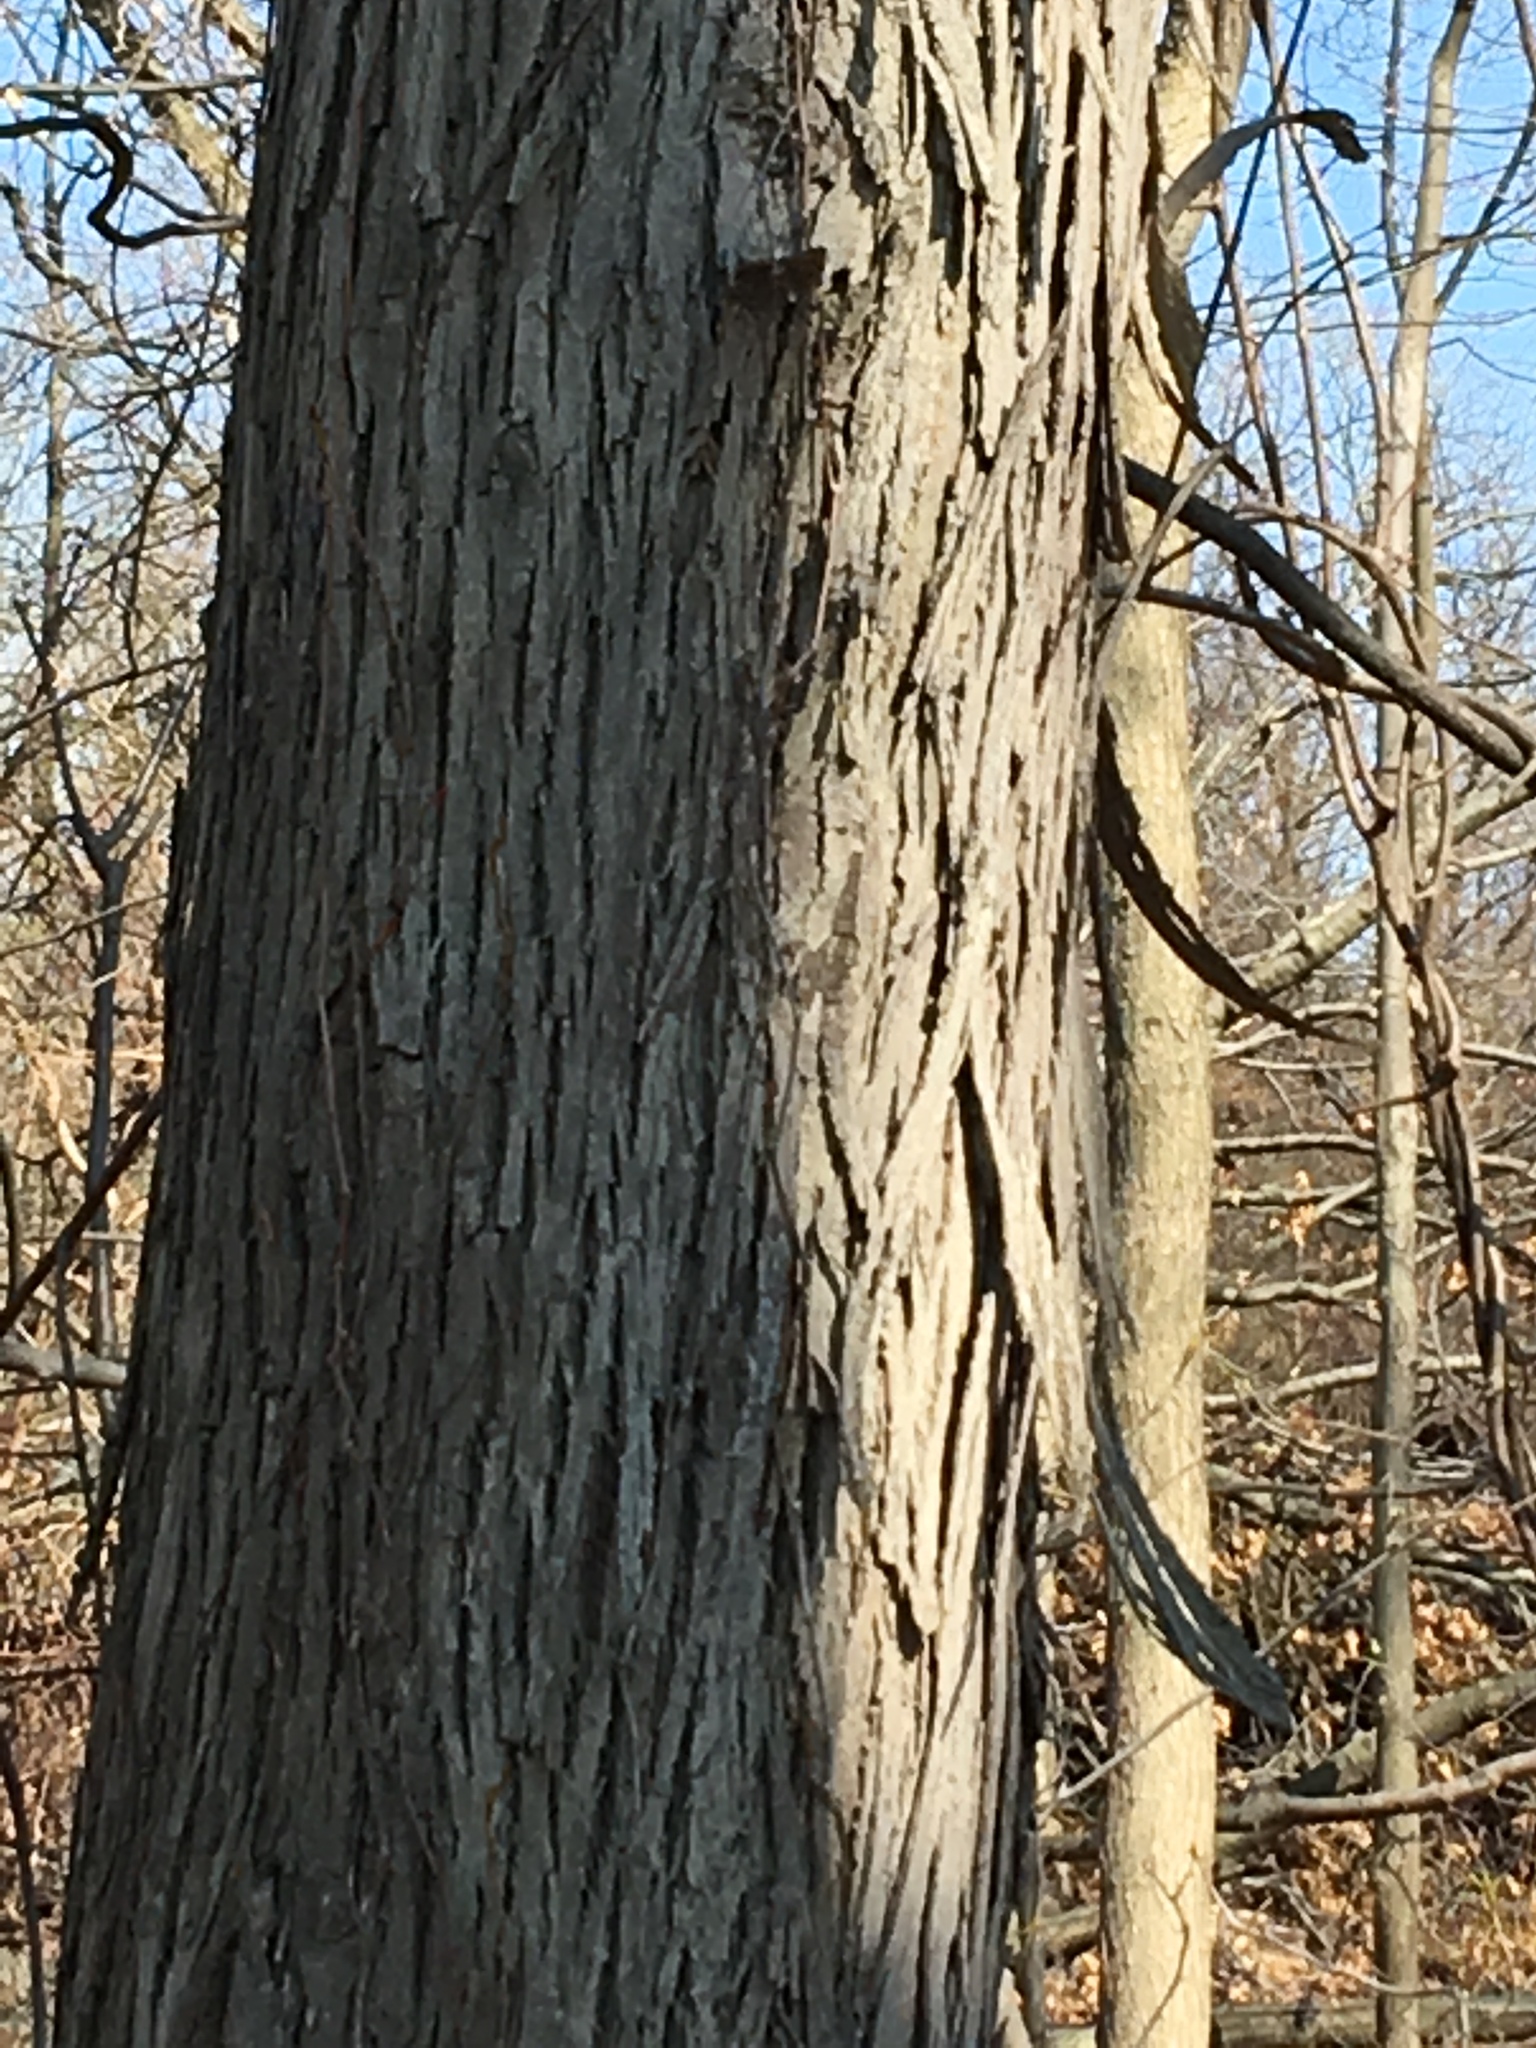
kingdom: Plantae
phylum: Tracheophyta
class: Magnoliopsida
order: Fagales
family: Juglandaceae
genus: Carya
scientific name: Carya ovata
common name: Shagbark hickory
